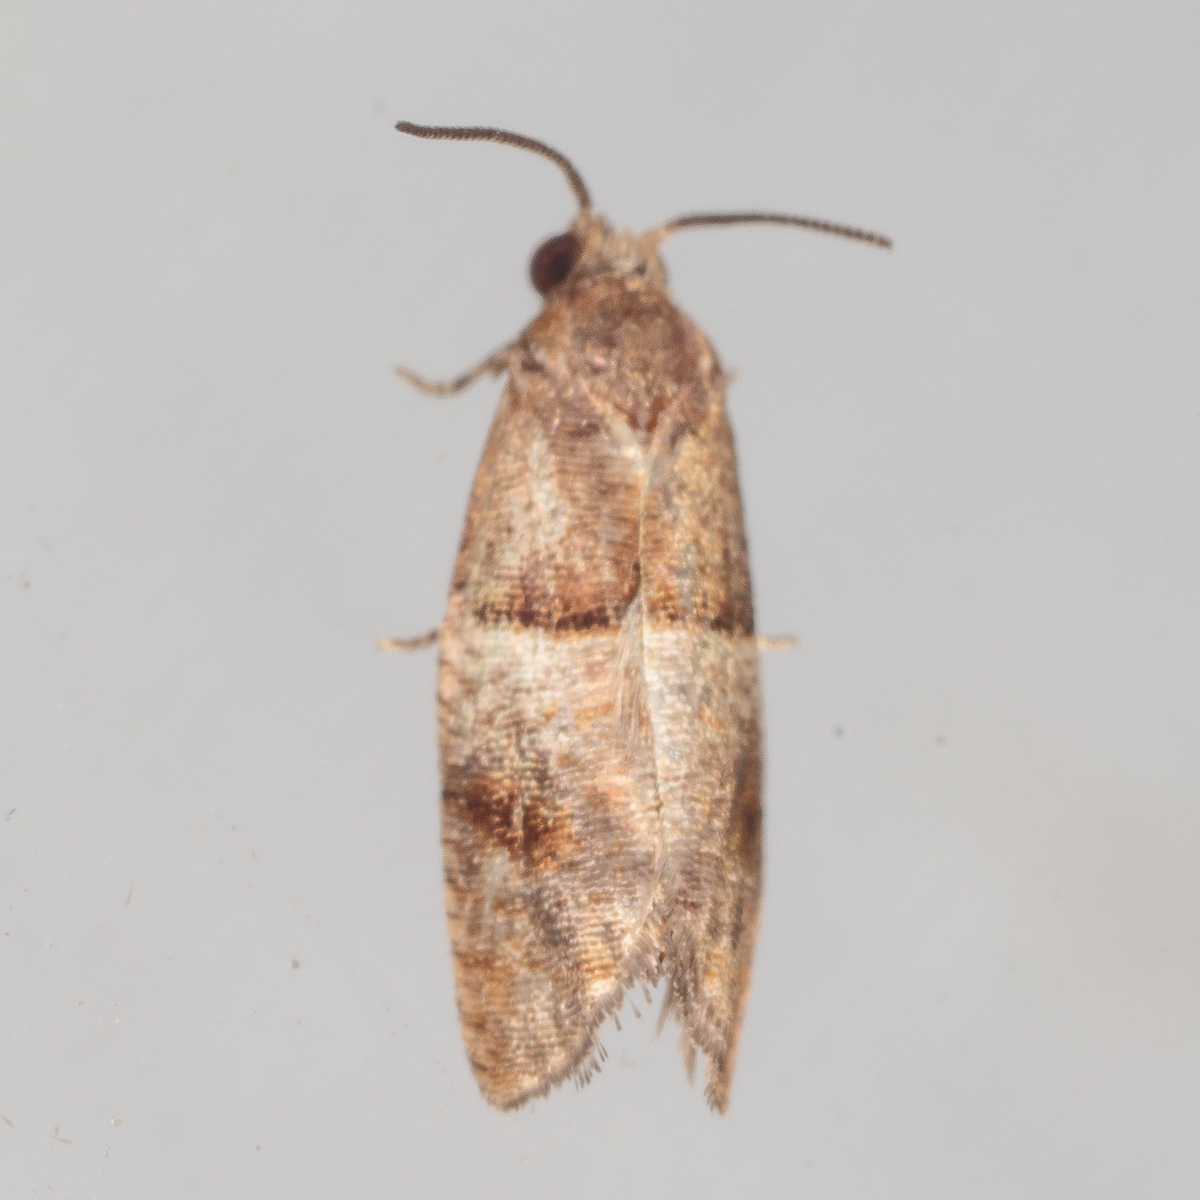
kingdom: Animalia
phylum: Arthropoda
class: Insecta
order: Lepidoptera
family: Tortricidae
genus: Larisa
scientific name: Larisa subsolana
